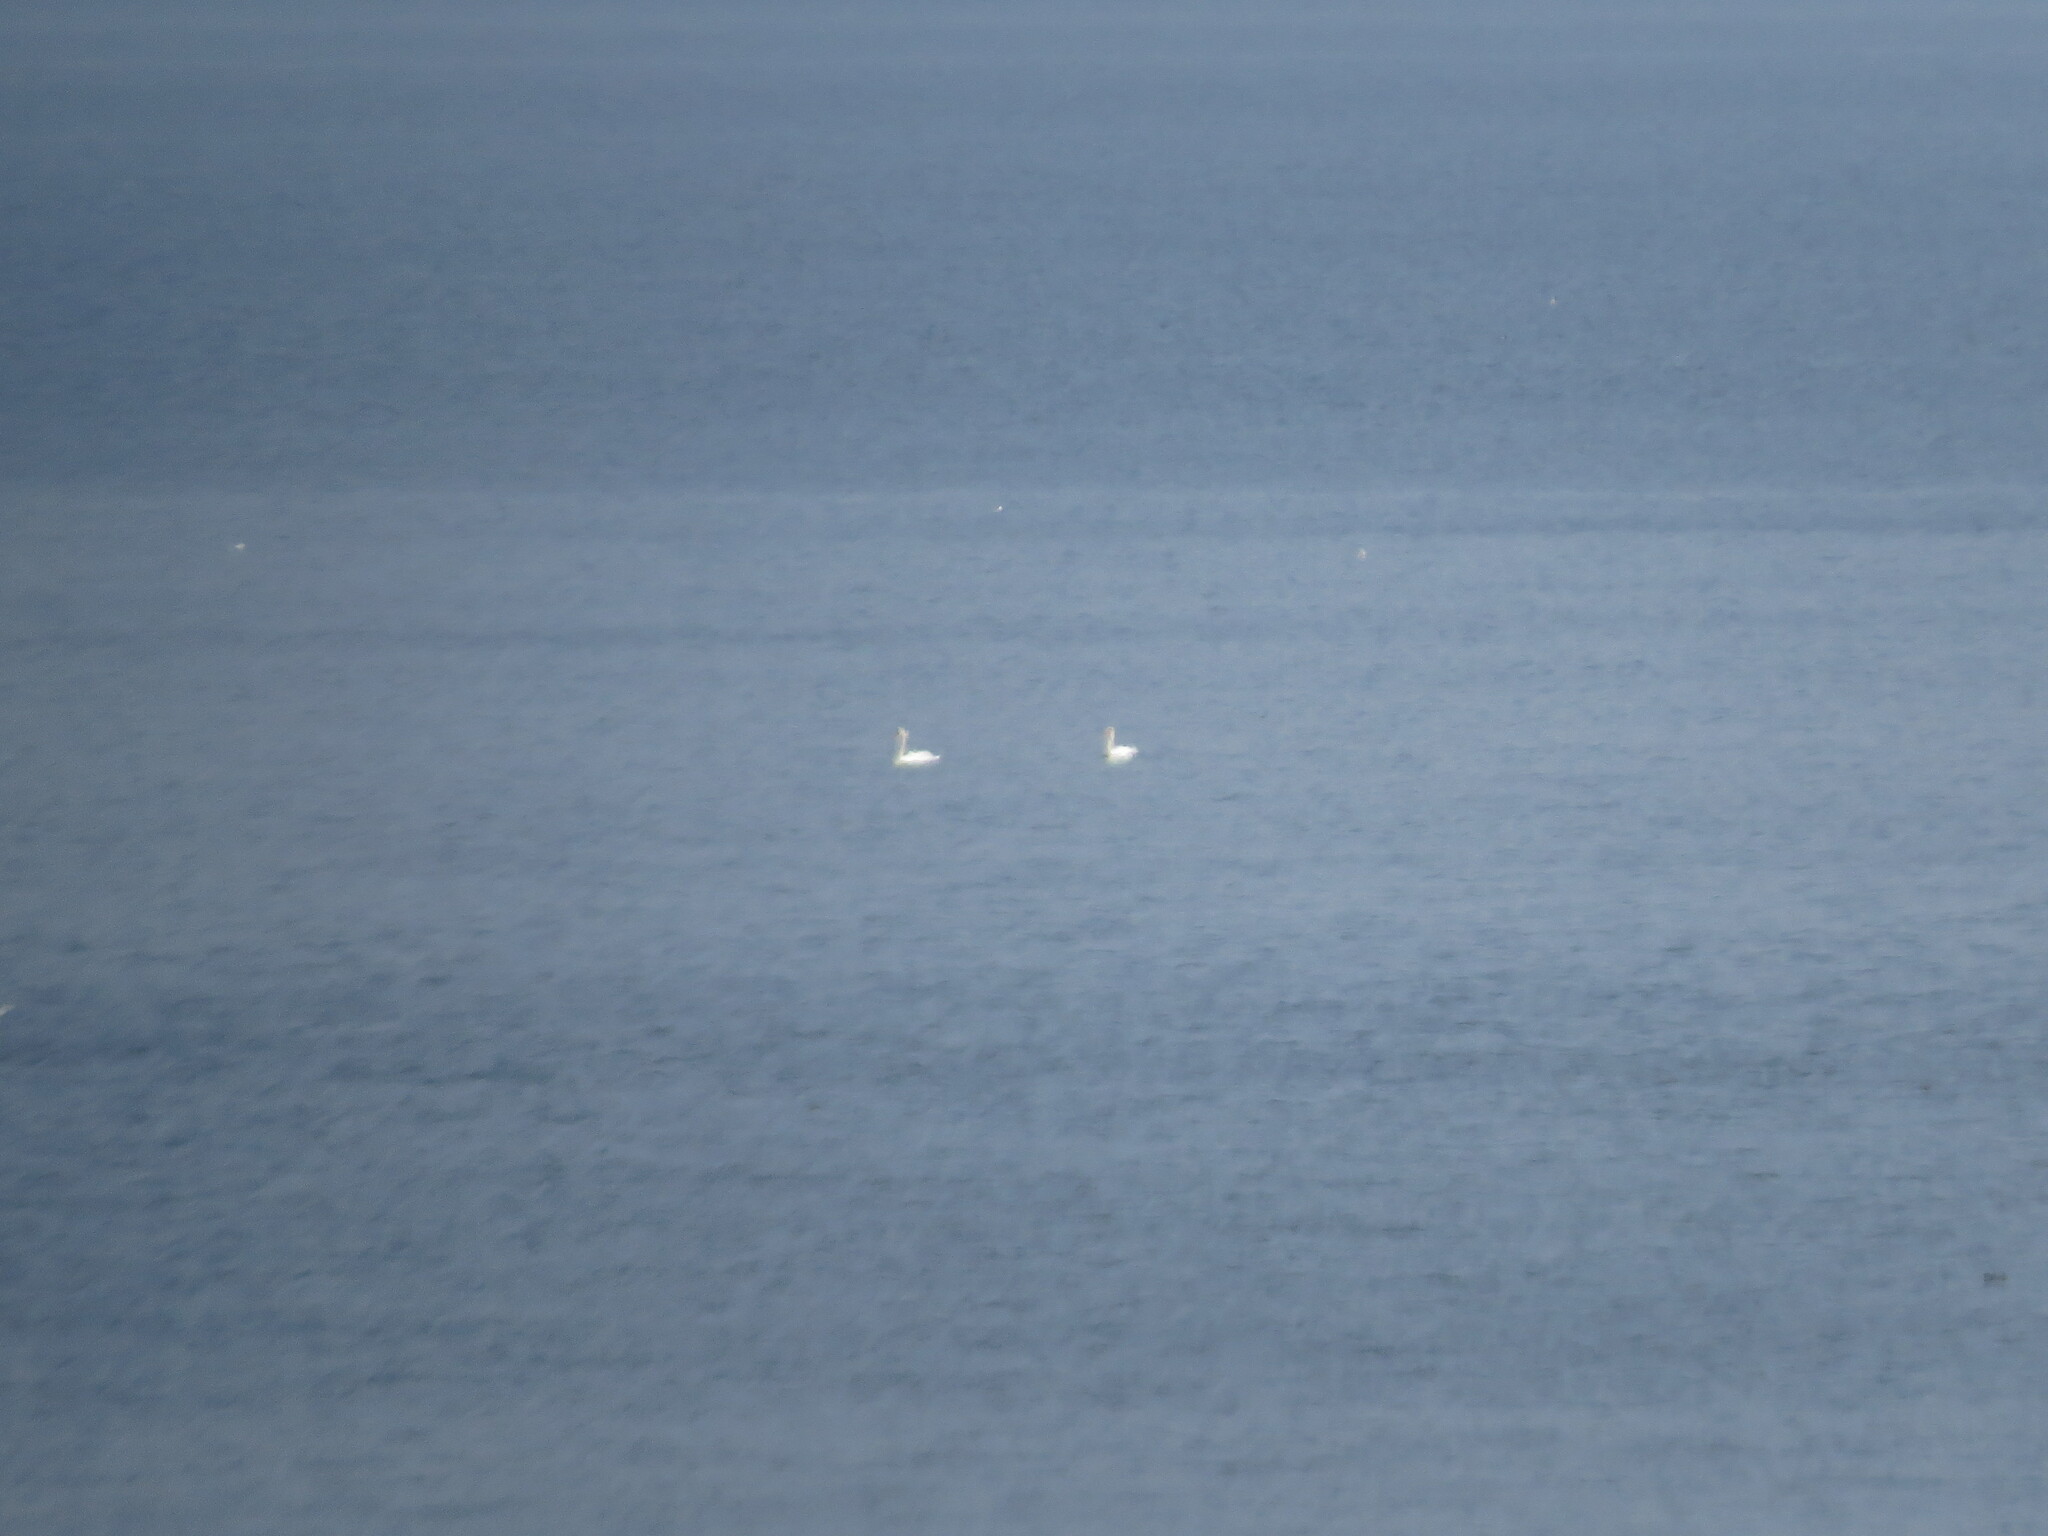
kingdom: Animalia
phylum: Chordata
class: Aves
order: Anseriformes
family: Anatidae
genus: Cygnus
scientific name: Cygnus olor
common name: Mute swan
